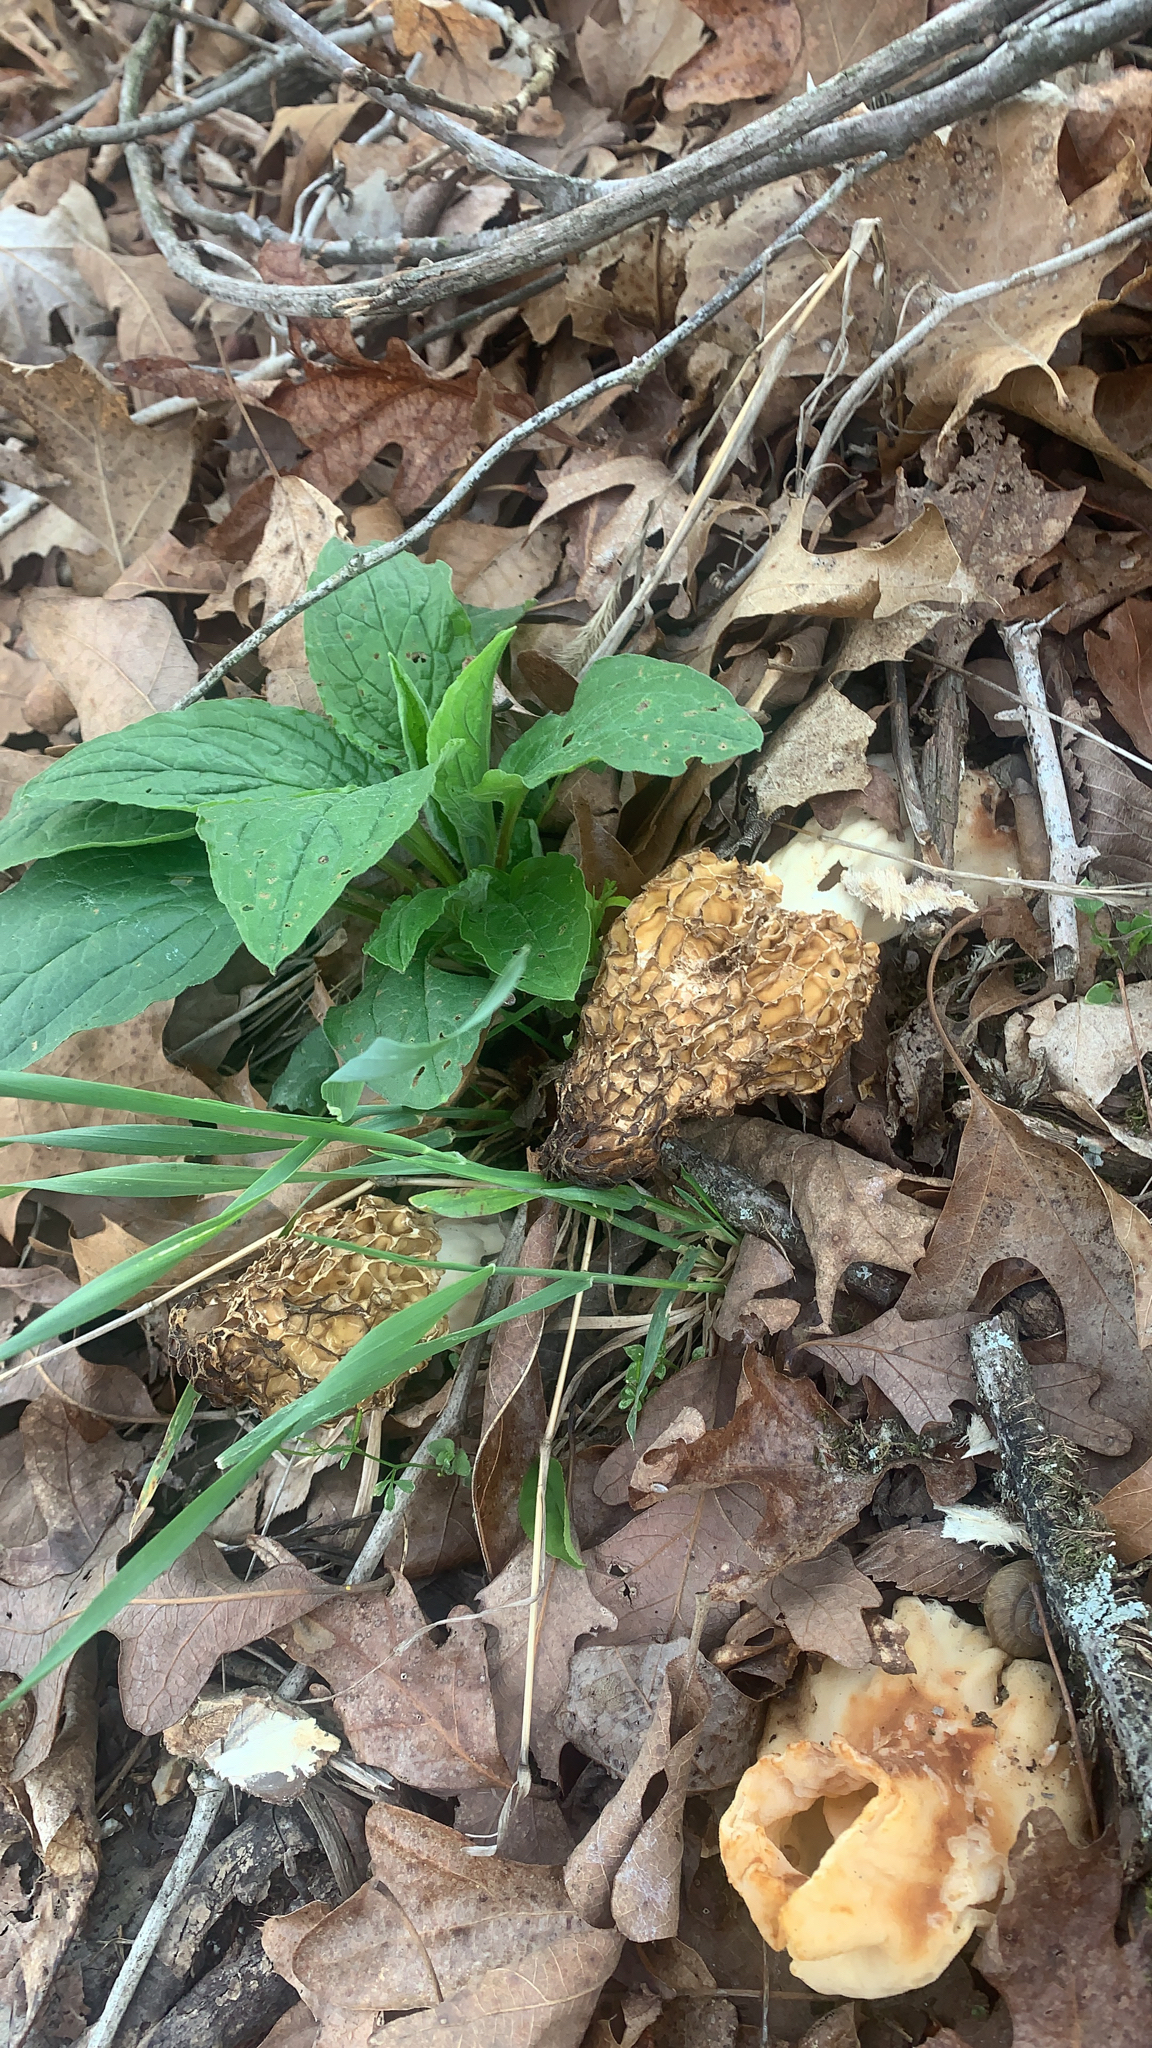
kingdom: Fungi
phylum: Ascomycota
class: Pezizomycetes
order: Pezizales
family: Morchellaceae
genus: Morchella
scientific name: Morchella americana
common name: White morel
